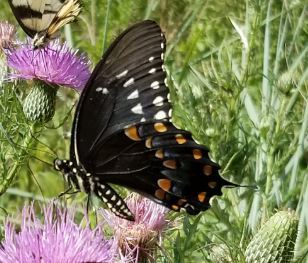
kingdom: Animalia
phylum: Arthropoda
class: Insecta
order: Lepidoptera
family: Papilionidae
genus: Papilio
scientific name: Papilio troilus
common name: Spicebush swallowtail
